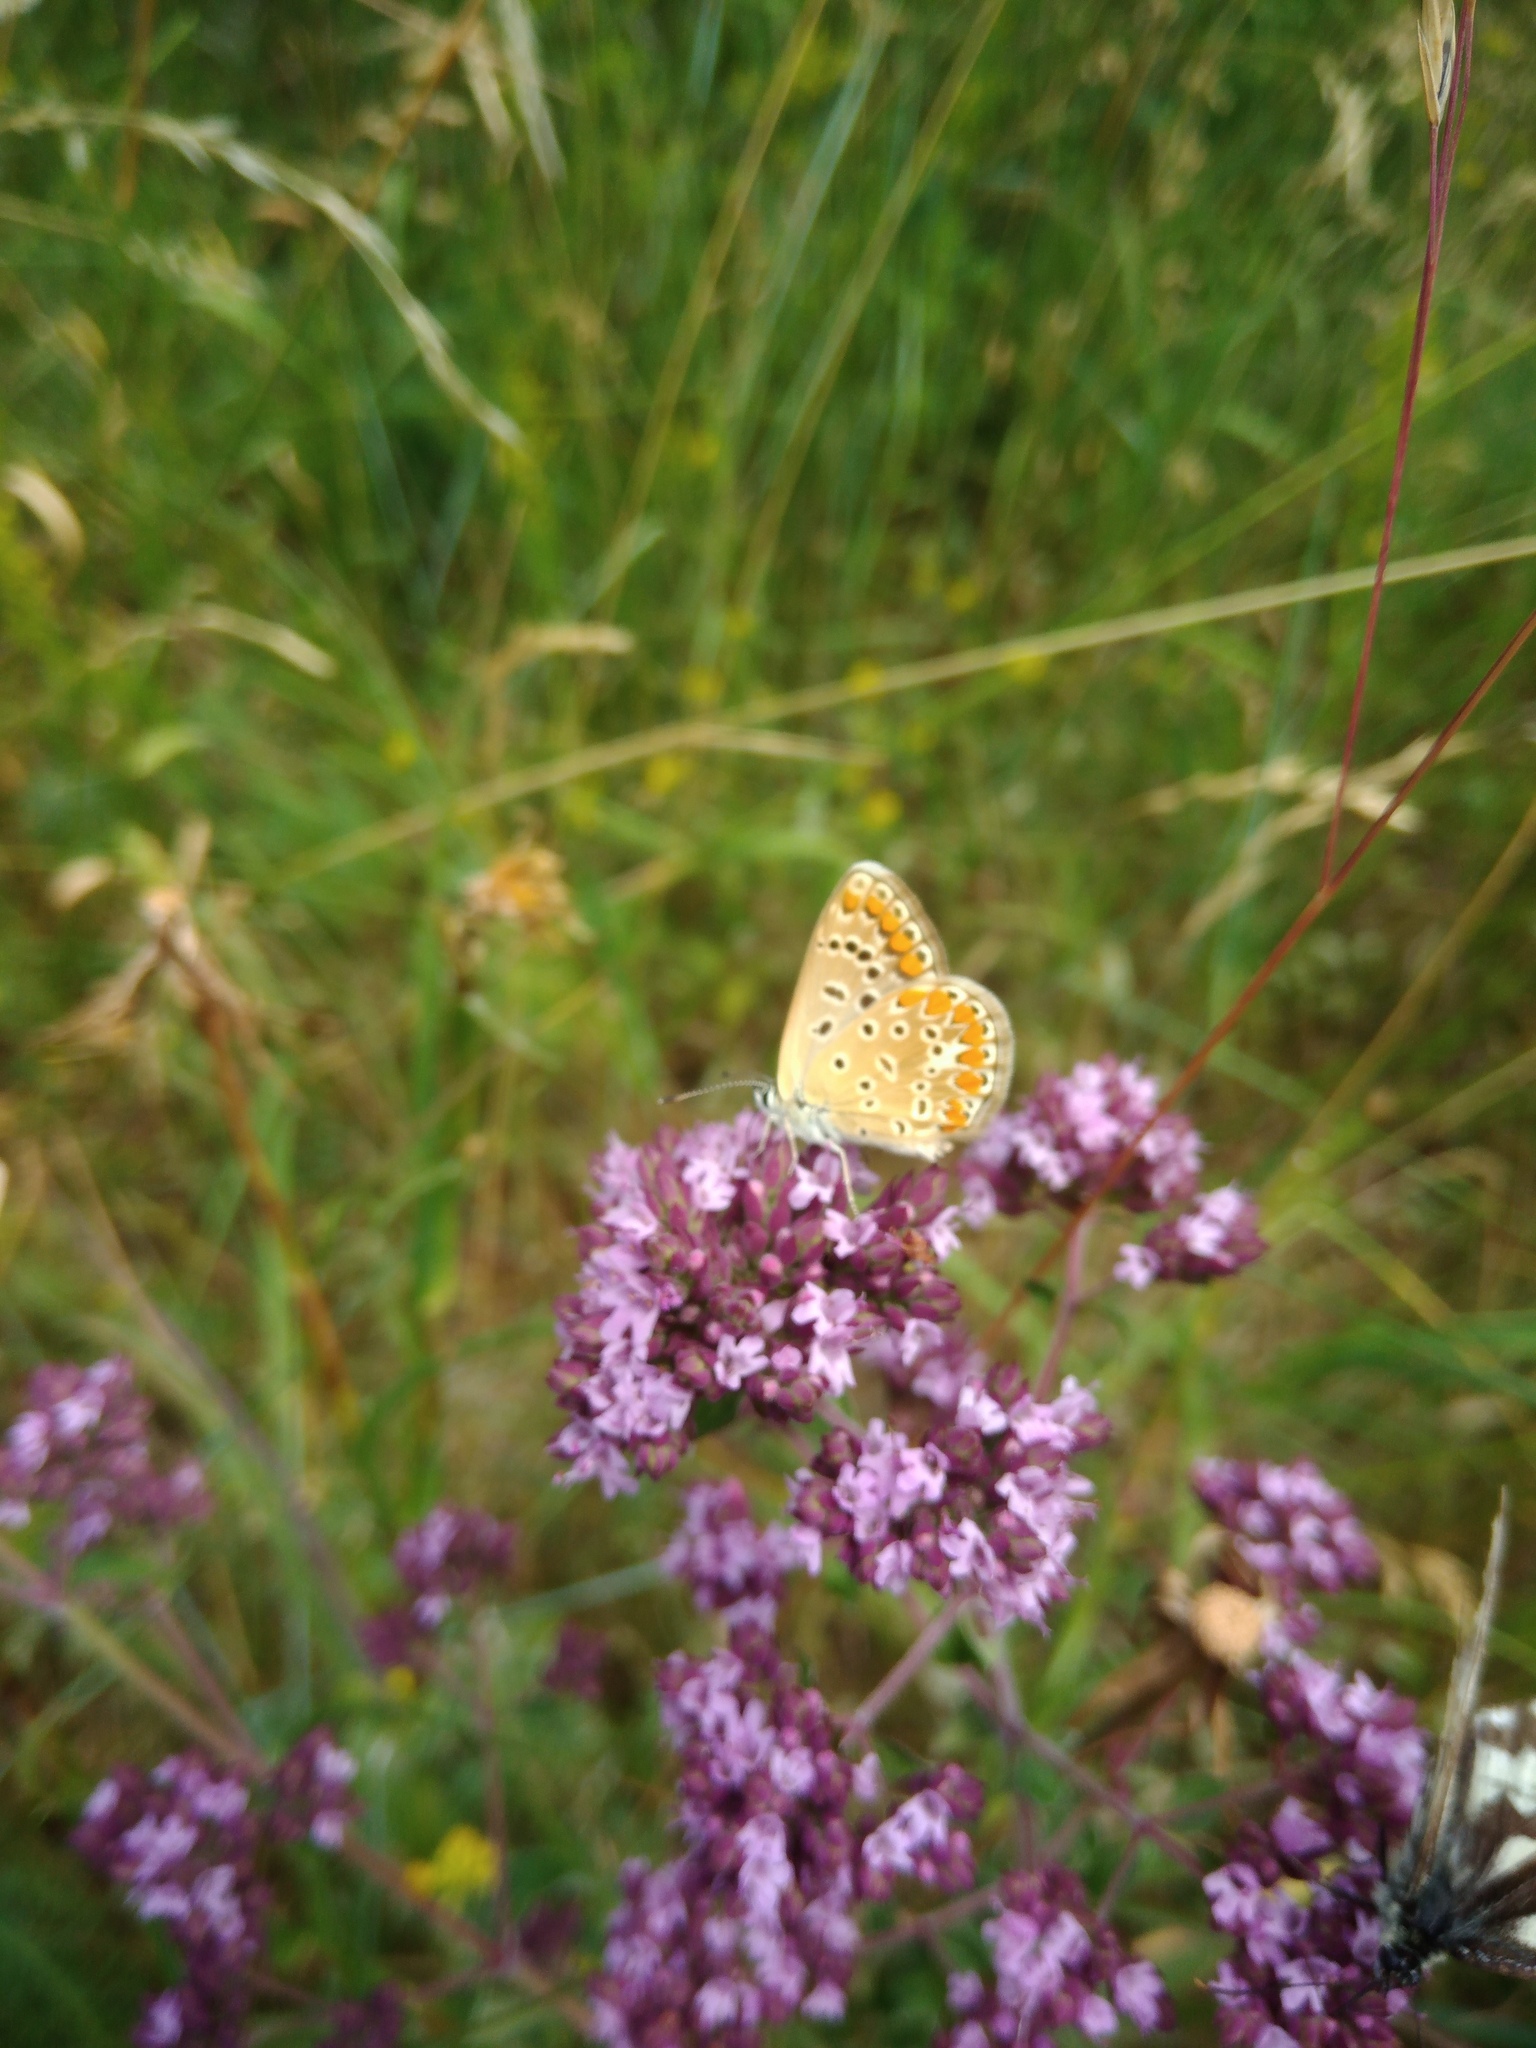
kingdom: Animalia
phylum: Arthropoda
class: Insecta
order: Lepidoptera
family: Lycaenidae
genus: Polyommatus
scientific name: Polyommatus icarus
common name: Common blue
